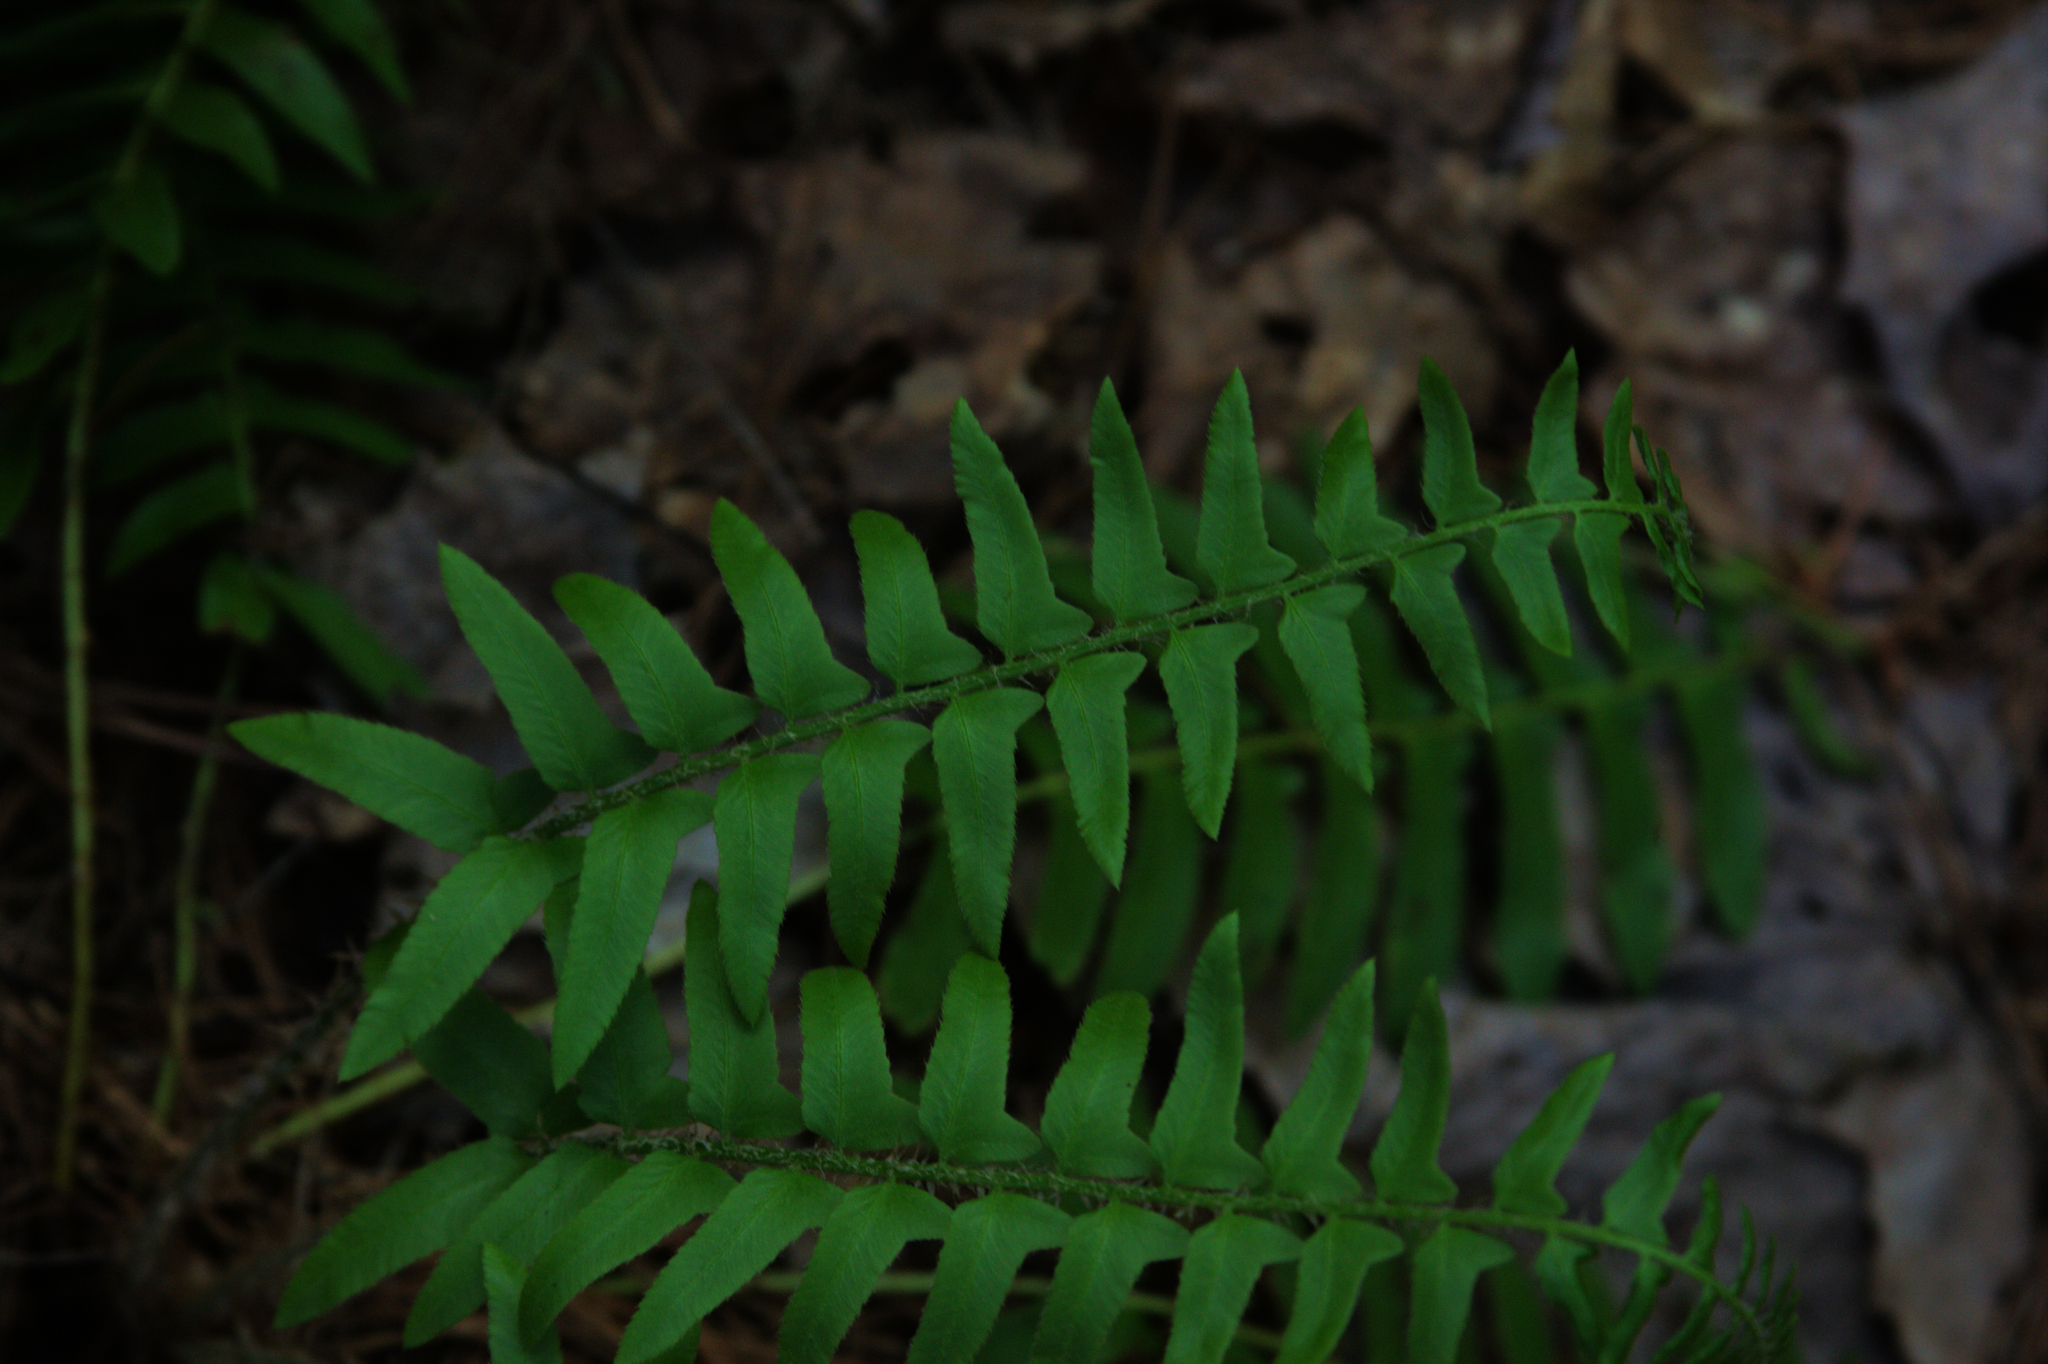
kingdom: Plantae
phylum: Tracheophyta
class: Polypodiopsida
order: Polypodiales
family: Dryopteridaceae
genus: Polystichum
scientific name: Polystichum acrostichoides
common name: Christmas fern
